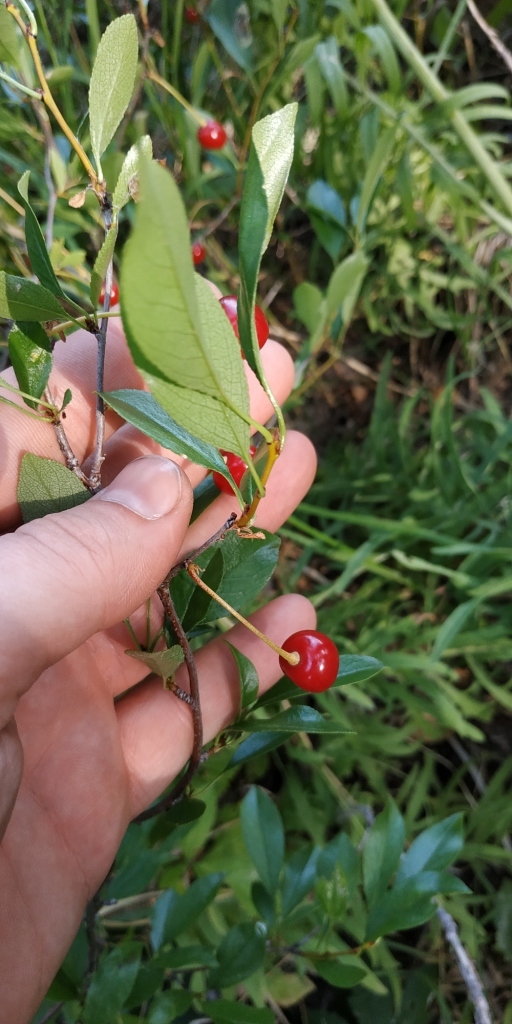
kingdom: Plantae
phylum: Tracheophyta
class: Magnoliopsida
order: Rosales
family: Rosaceae
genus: Prunus
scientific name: Prunus fruticosa
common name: European dwarf cherry
